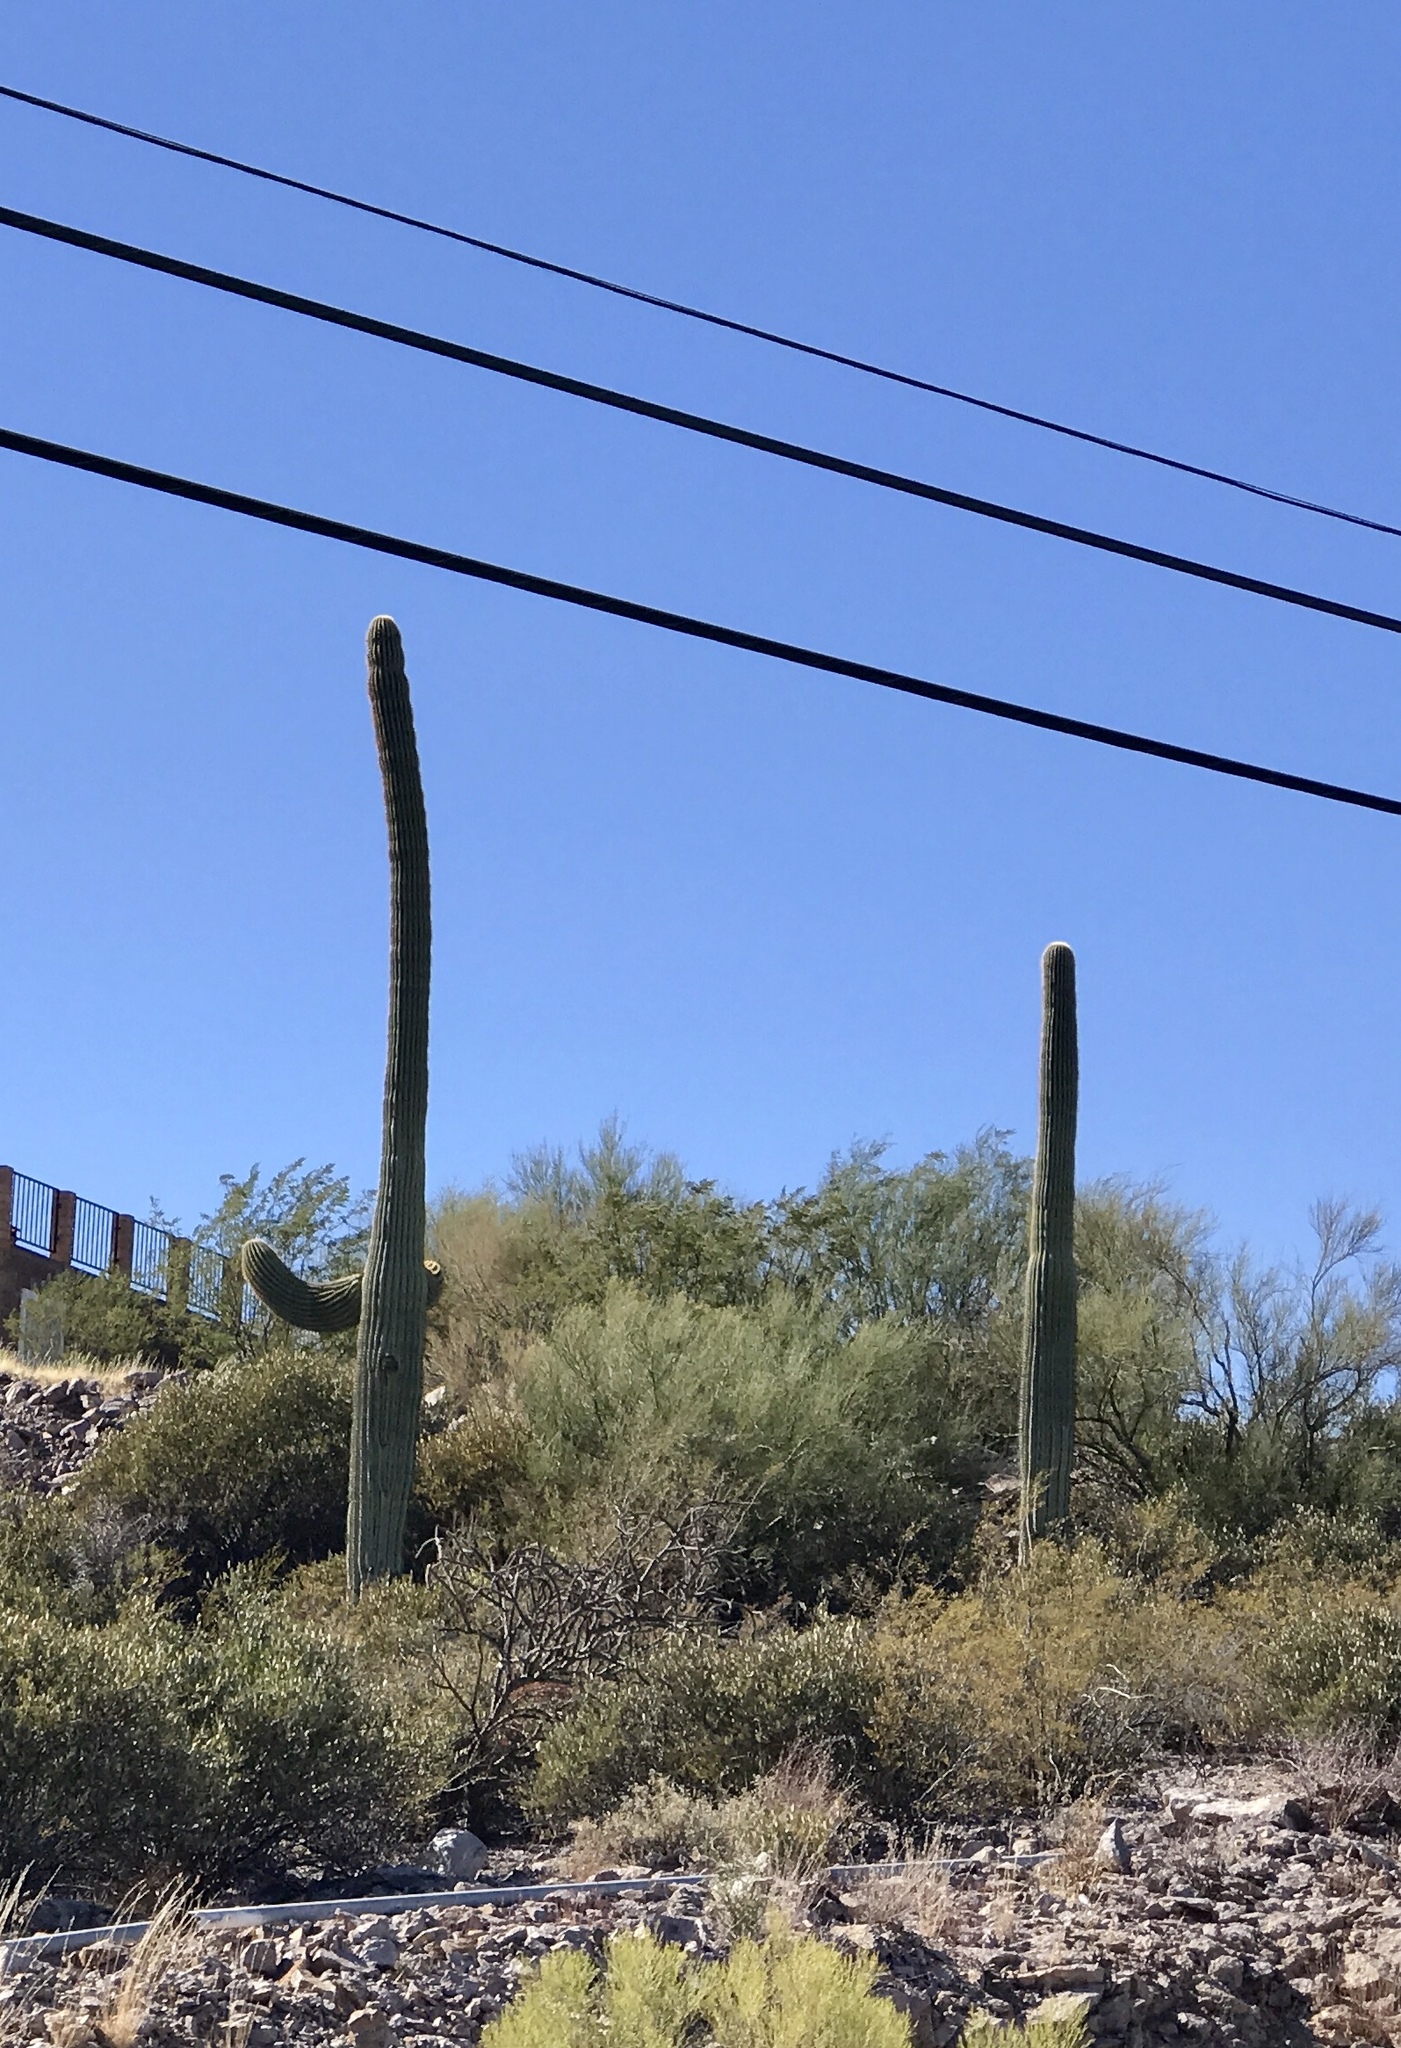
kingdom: Plantae
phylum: Tracheophyta
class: Magnoliopsida
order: Caryophyllales
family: Cactaceae
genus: Carnegiea
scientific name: Carnegiea gigantea
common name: Saguaro
